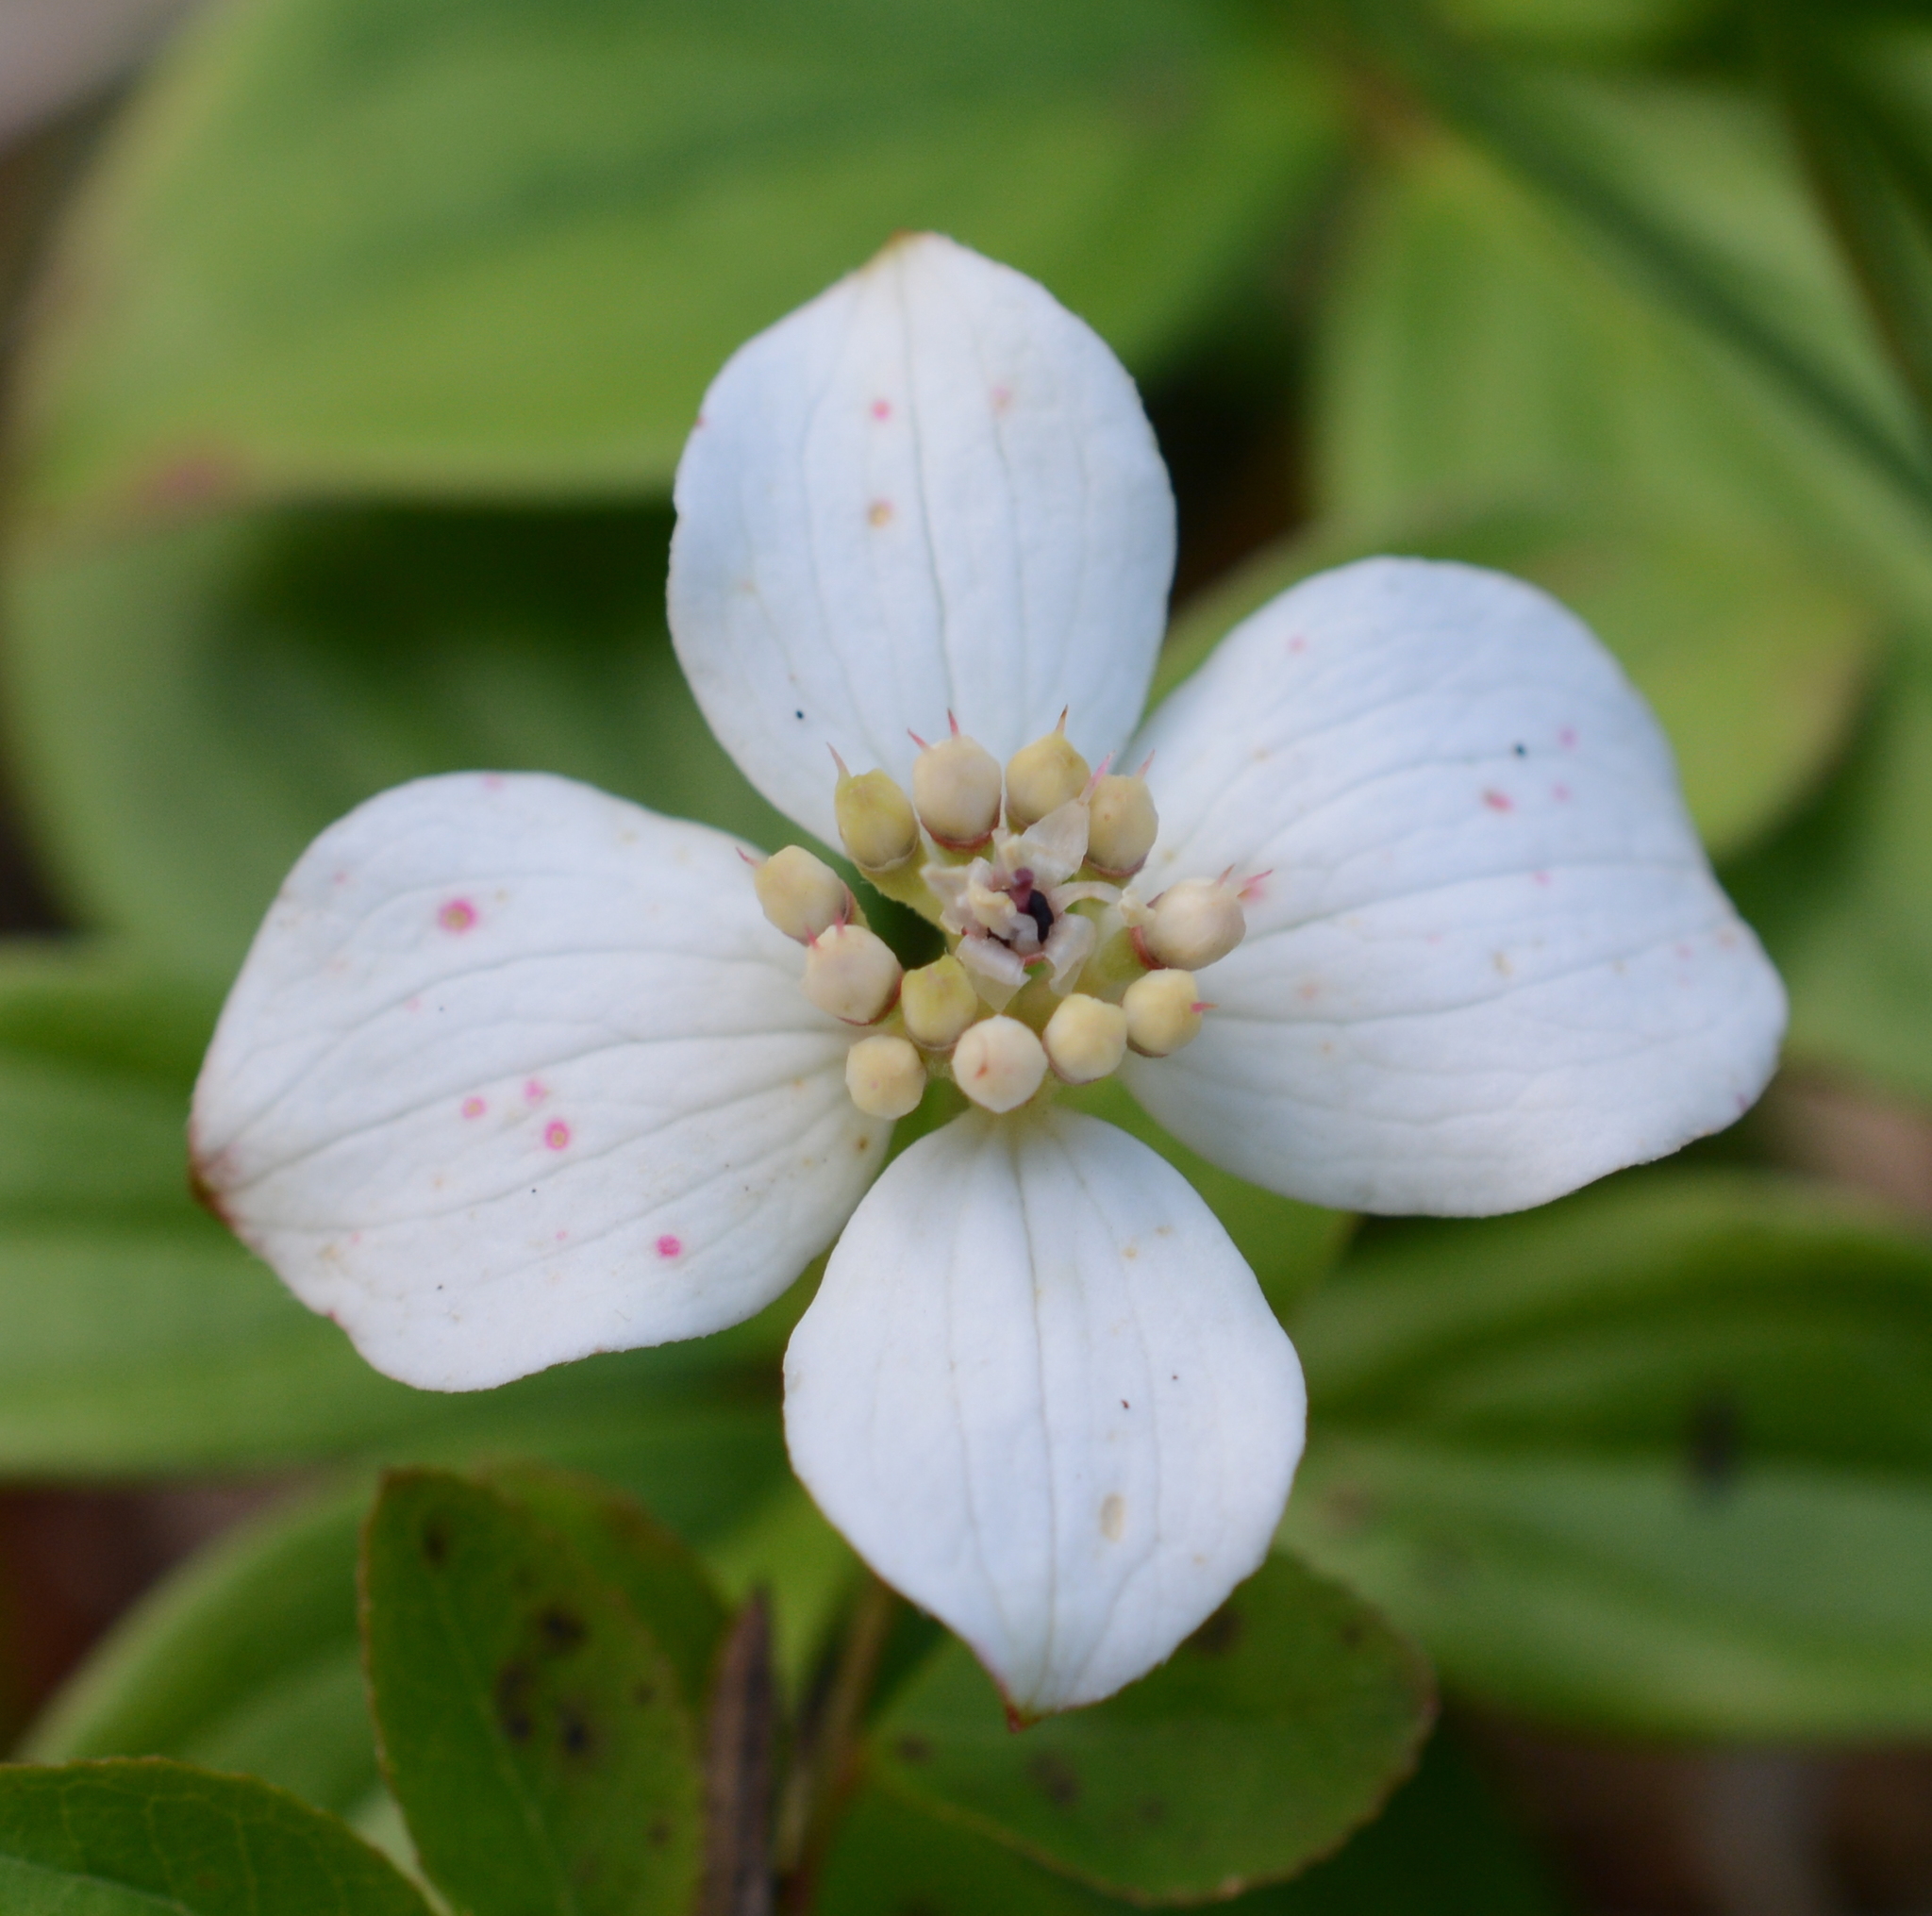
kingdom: Plantae
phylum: Tracheophyta
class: Magnoliopsida
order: Cornales
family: Cornaceae
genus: Cornus
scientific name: Cornus canadensis
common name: Creeping dogwood
